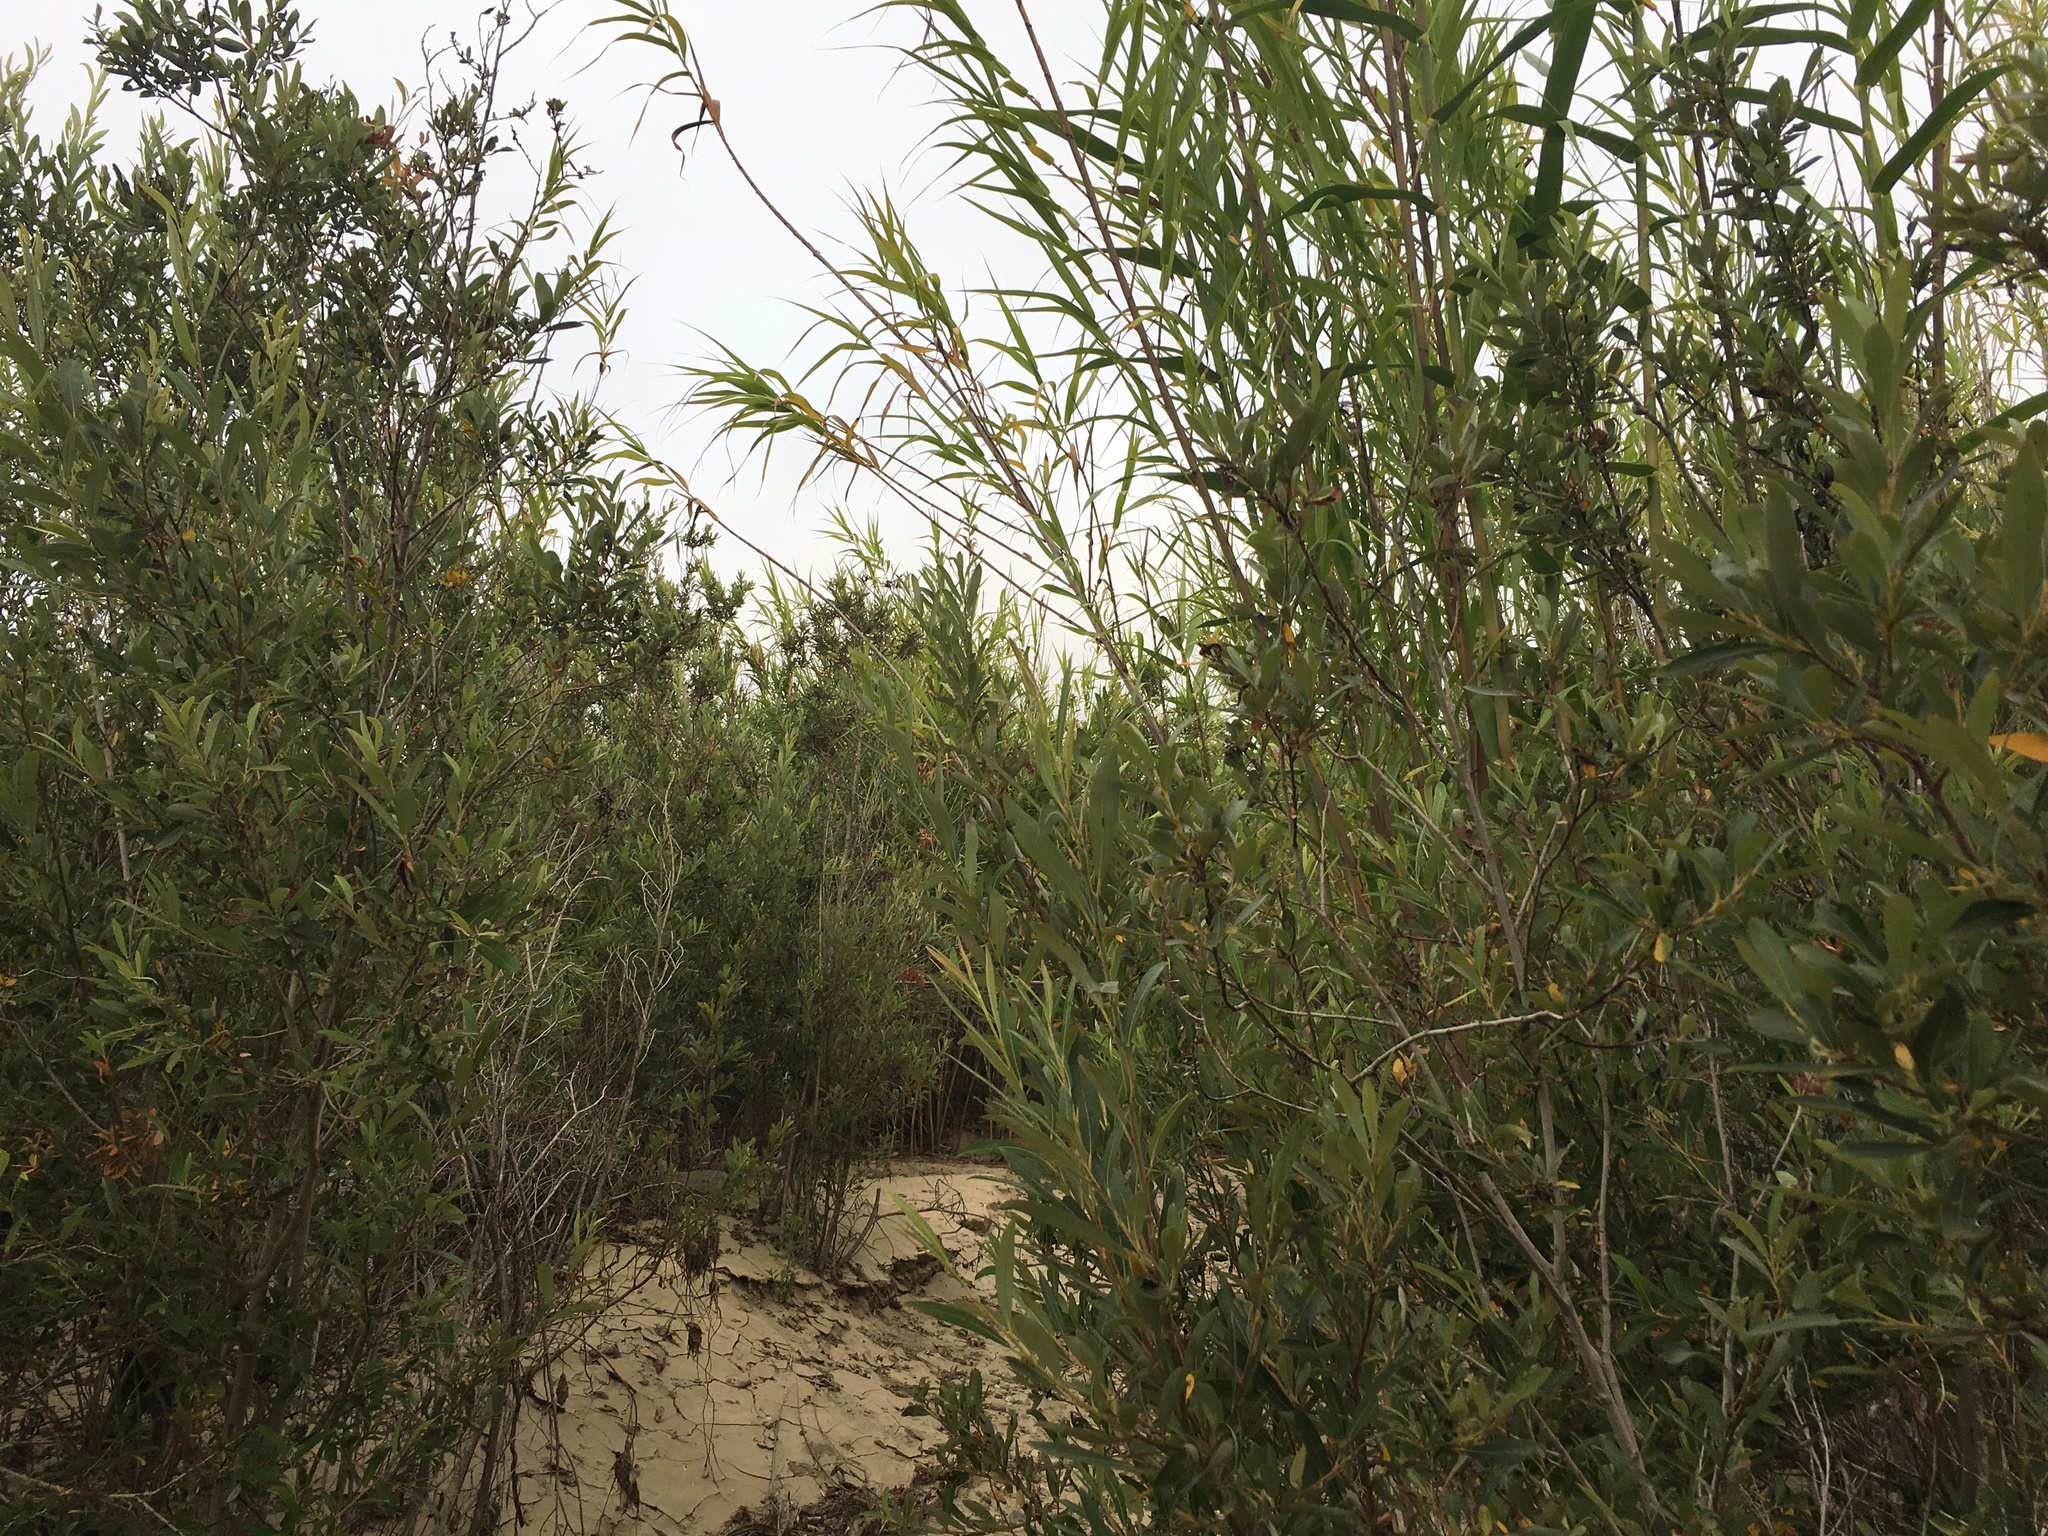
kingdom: Plantae
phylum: Tracheophyta
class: Liliopsida
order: Poales
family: Poaceae
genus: Arundo
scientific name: Arundo donax
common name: Giant reed
